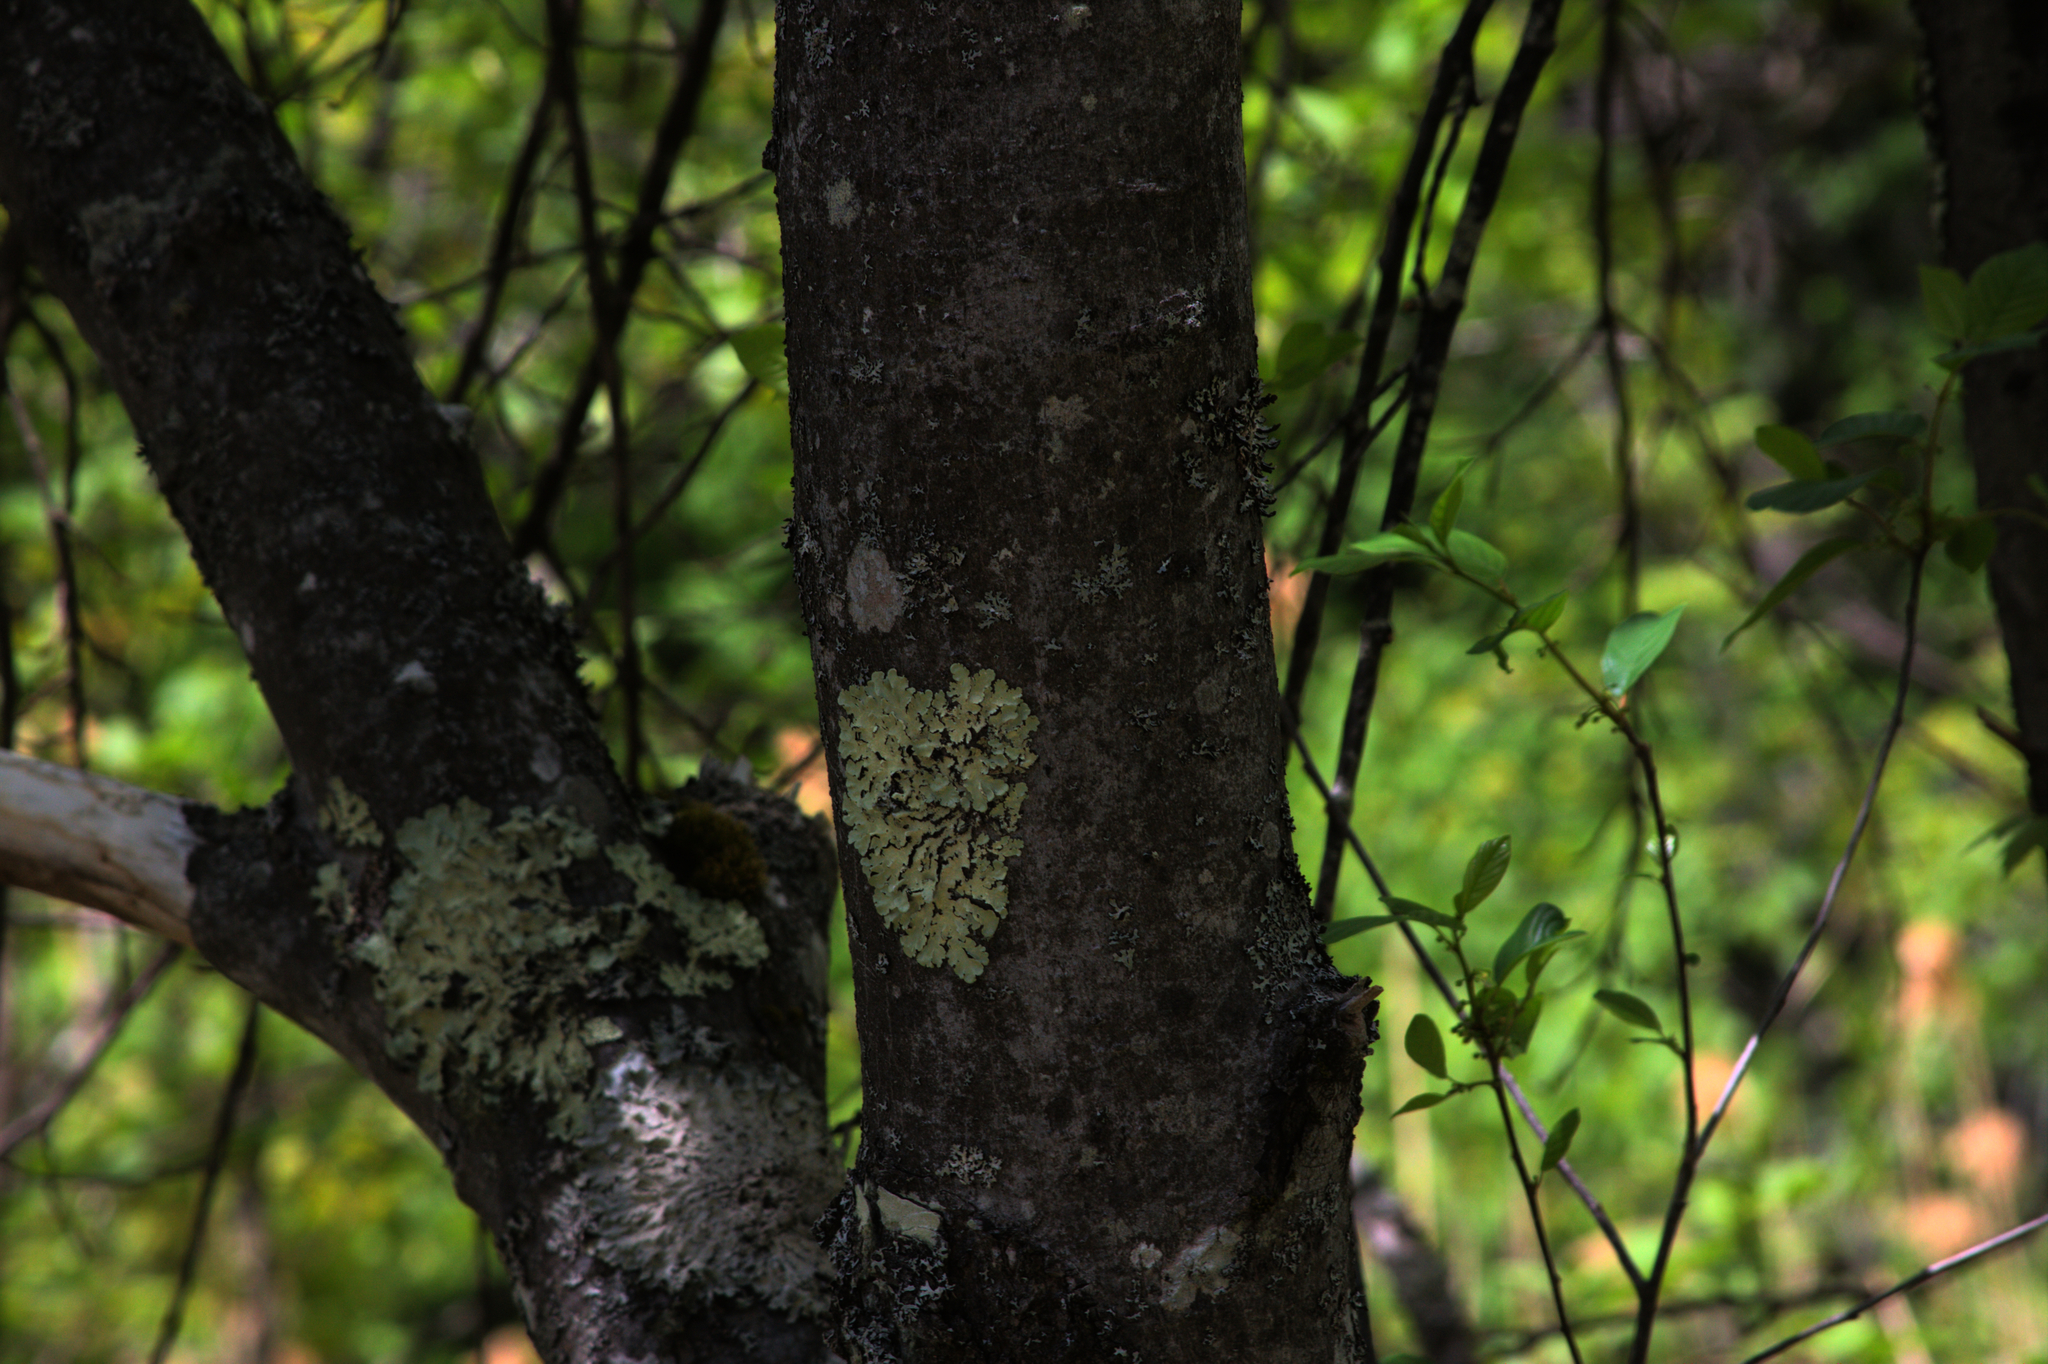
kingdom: Fungi
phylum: Ascomycota
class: Lecanoromycetes
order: Lecanorales
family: Parmeliaceae
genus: Flavoparmelia
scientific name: Flavoparmelia caperata
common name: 40-mile per hour lichen
